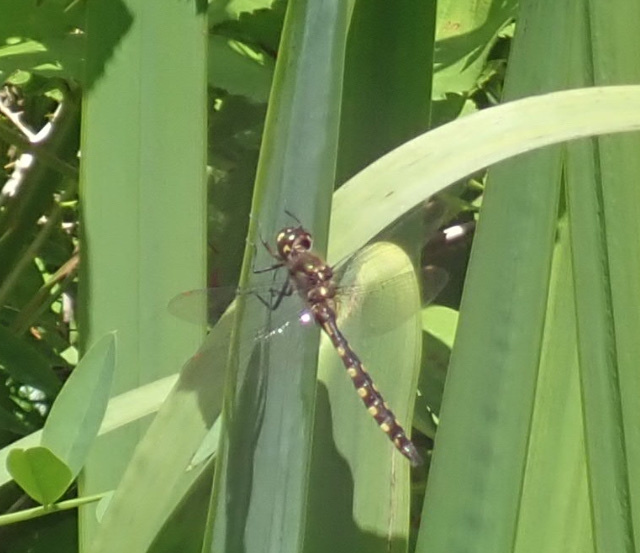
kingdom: Animalia
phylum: Arthropoda
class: Insecta
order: Odonata
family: Corduliidae
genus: Procordulia
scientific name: Procordulia grayi
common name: Yellow spotted dragonfly
